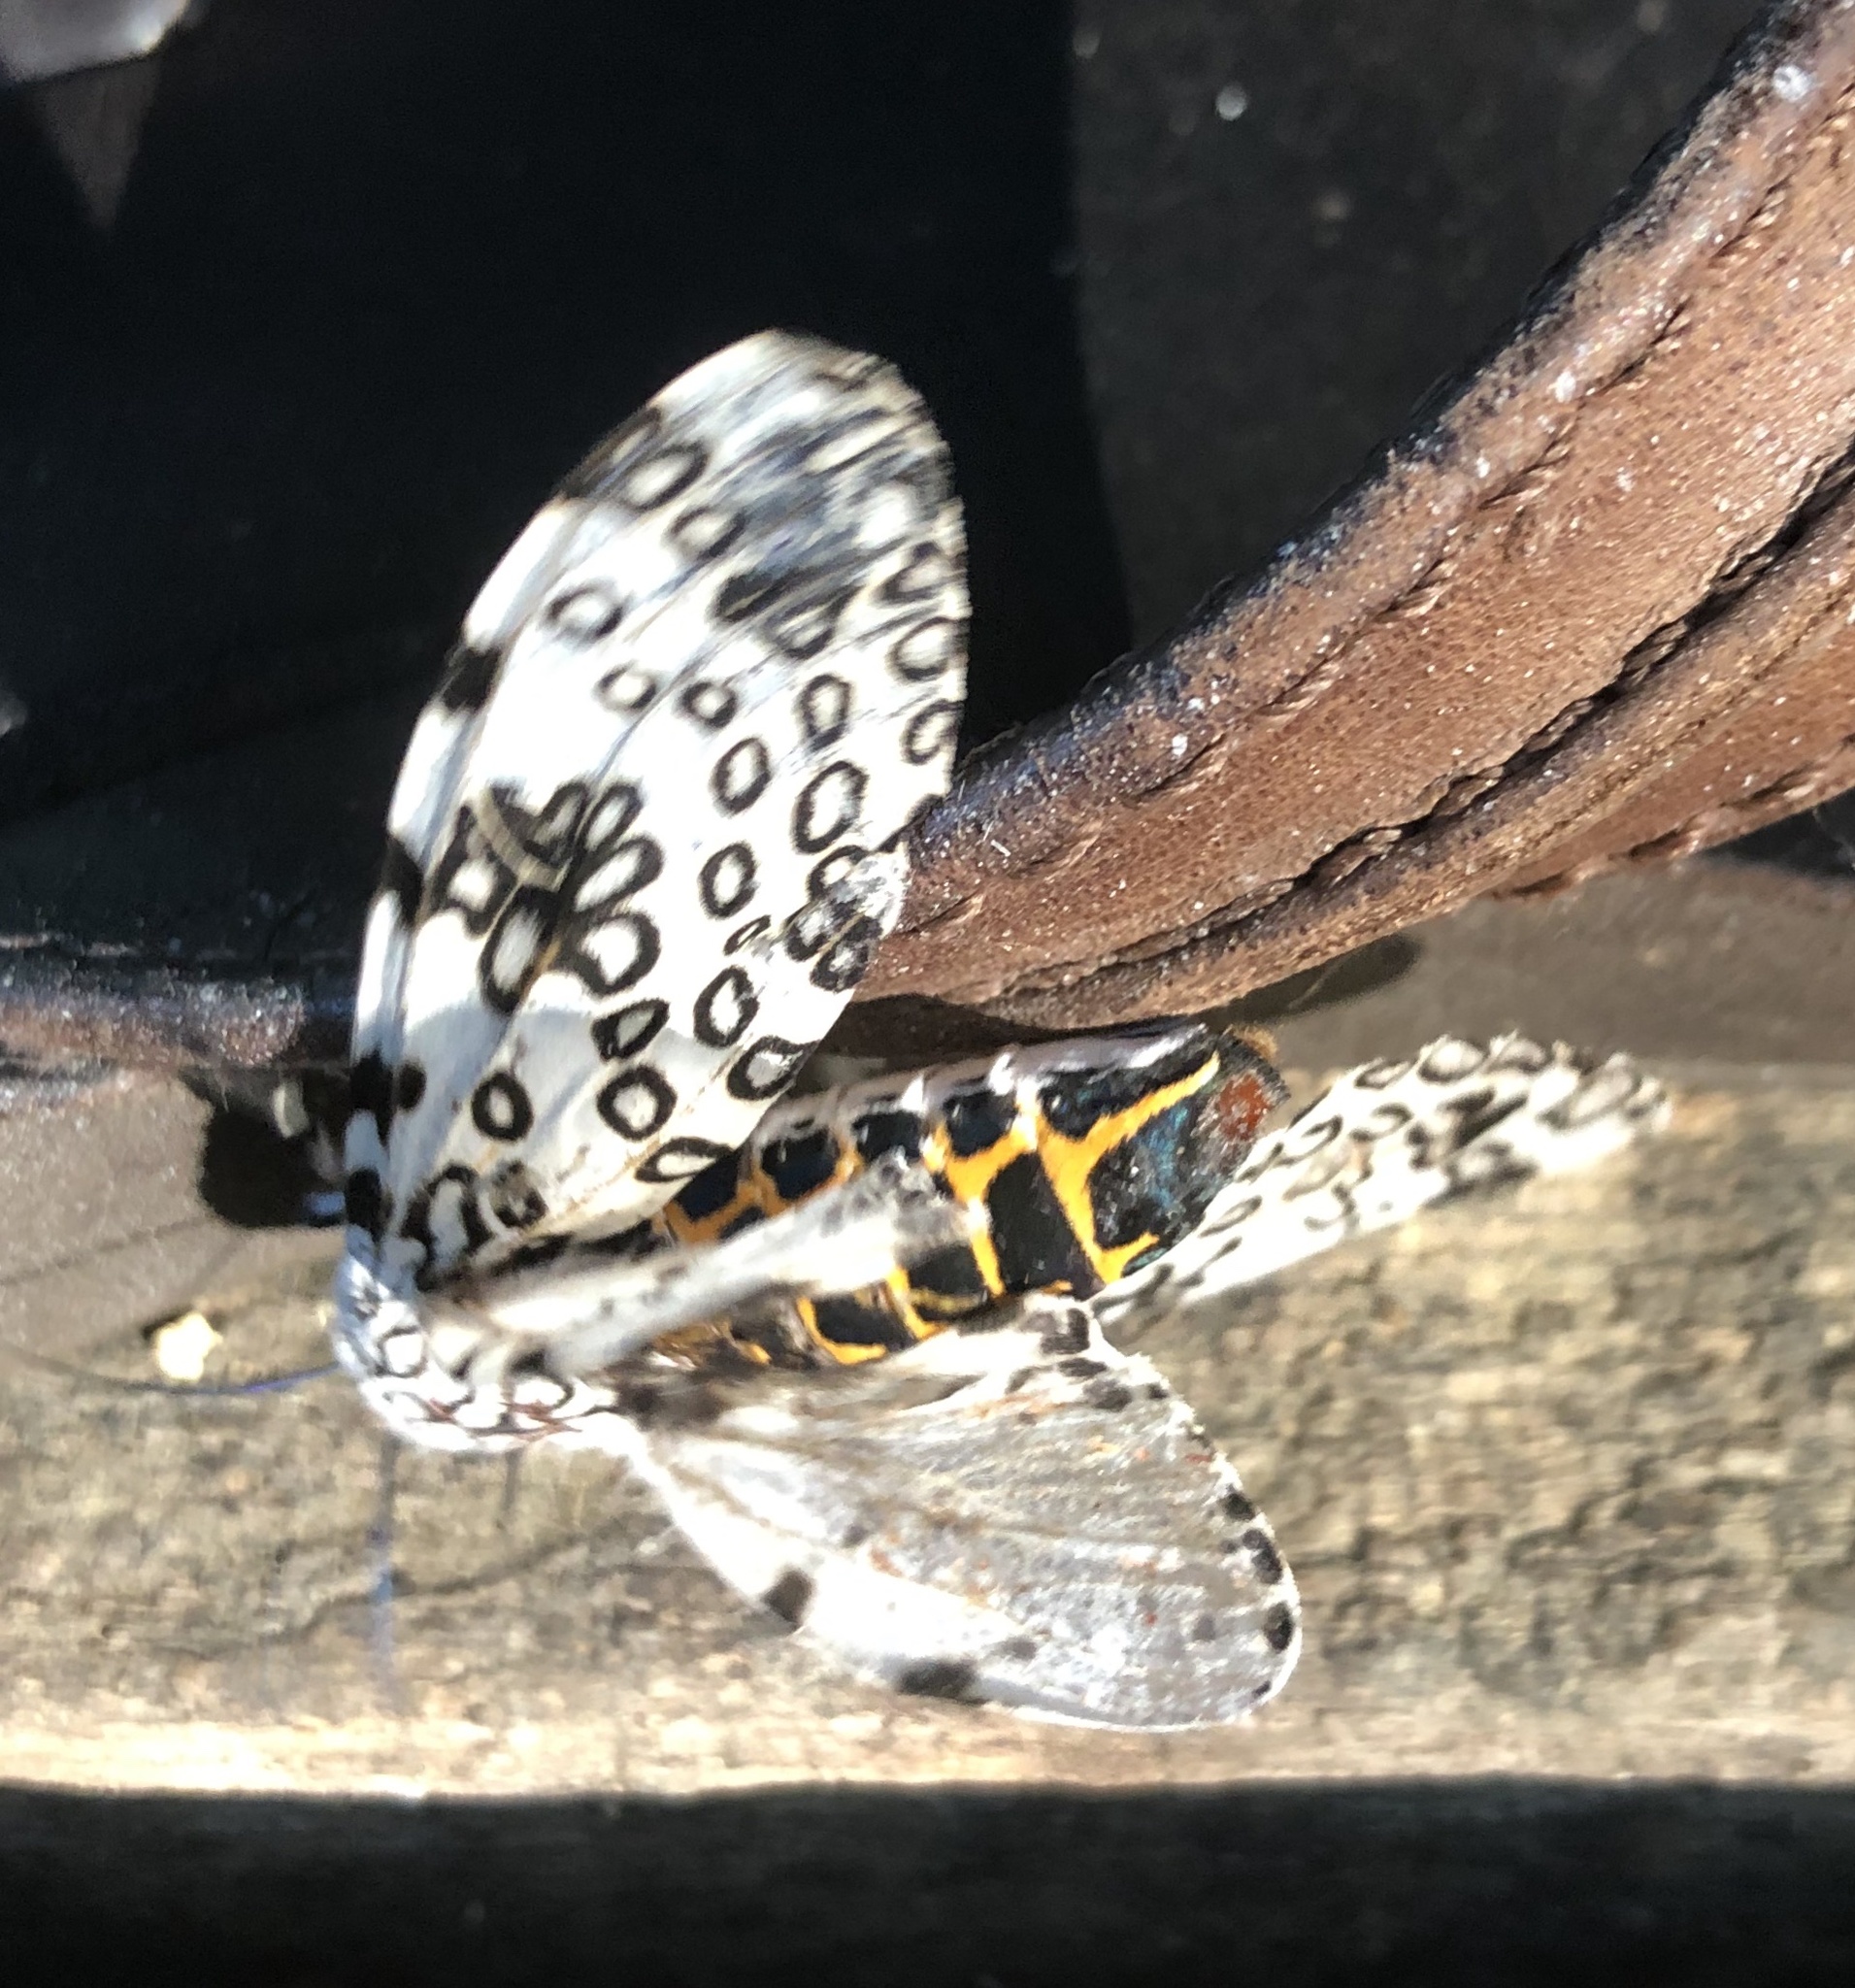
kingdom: Animalia
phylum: Arthropoda
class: Insecta
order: Lepidoptera
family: Erebidae
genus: Hypercompe
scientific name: Hypercompe scribonia
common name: Giant leopard moth
